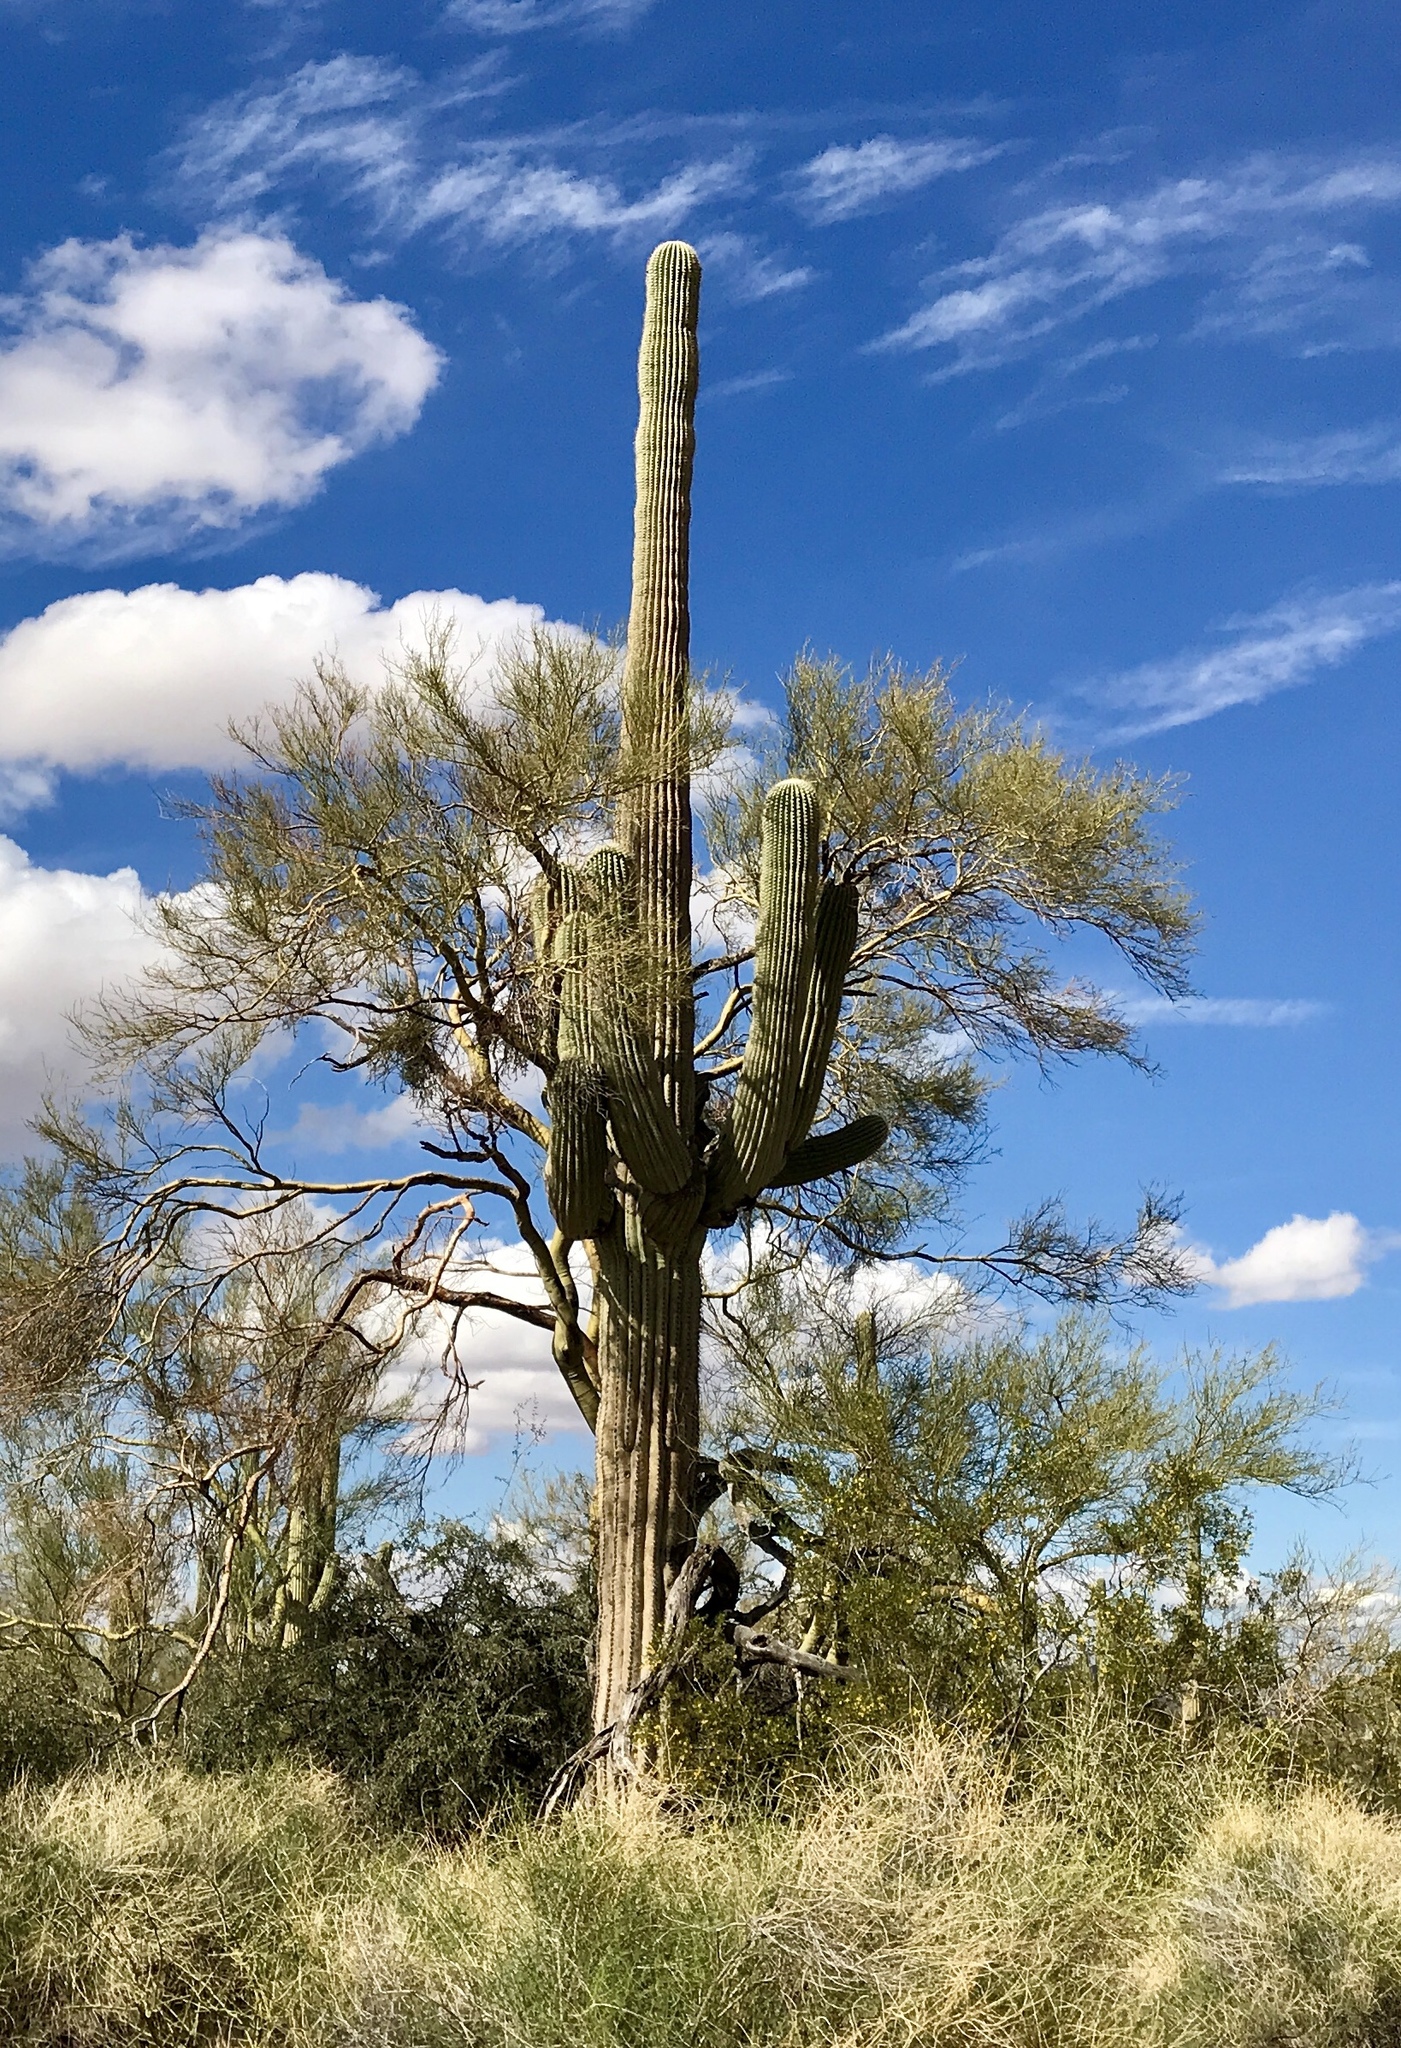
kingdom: Plantae
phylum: Tracheophyta
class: Magnoliopsida
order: Caryophyllales
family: Cactaceae
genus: Carnegiea
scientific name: Carnegiea gigantea
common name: Saguaro
